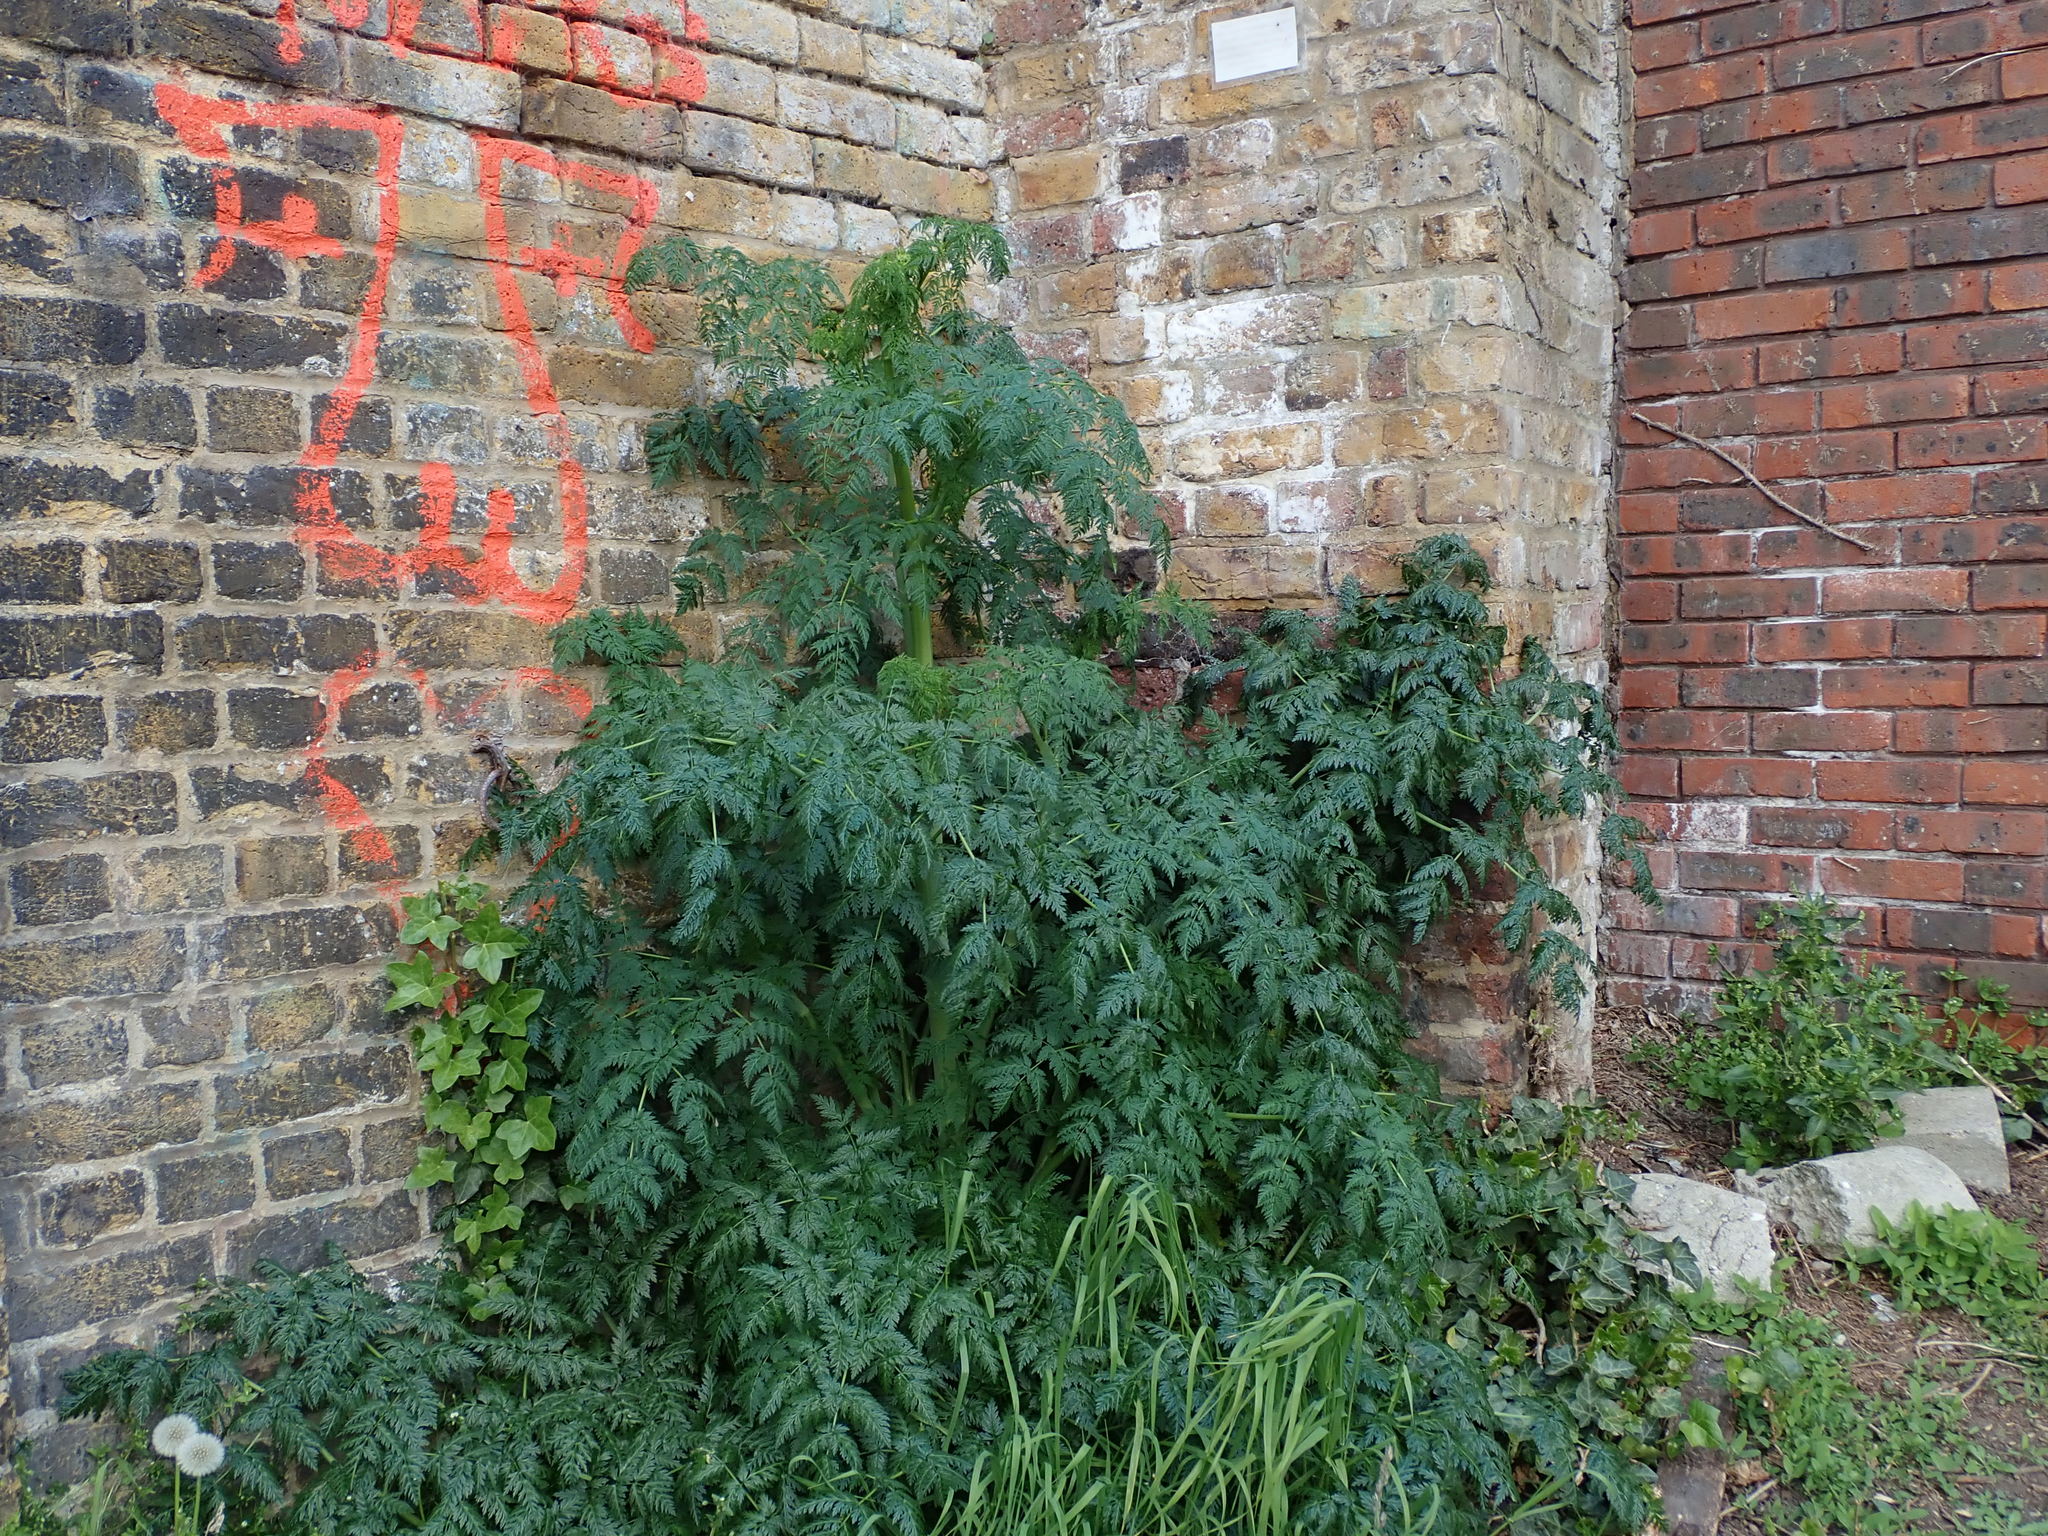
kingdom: Plantae
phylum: Tracheophyta
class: Magnoliopsida
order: Apiales
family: Apiaceae
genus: Conium
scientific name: Conium maculatum
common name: Hemlock
